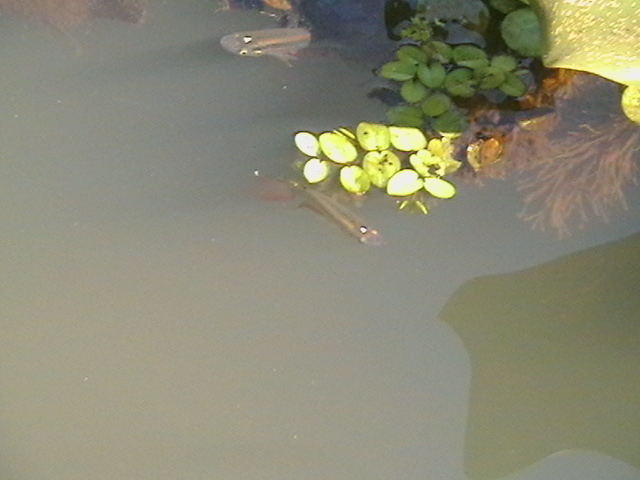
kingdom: Animalia
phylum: Chordata
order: Cyprinodontiformes
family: Aplocheilidae
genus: Aplocheilus
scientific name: Aplocheilus lineatus
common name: Striped panchax
